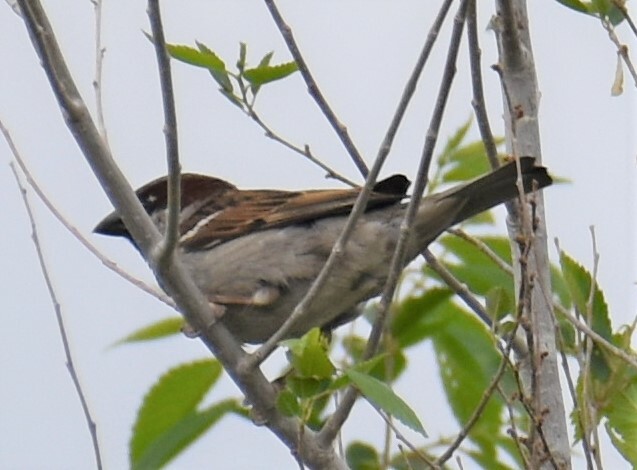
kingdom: Animalia
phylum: Chordata
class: Aves
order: Passeriformes
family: Passeridae
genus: Passer
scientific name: Passer domesticus
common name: House sparrow
